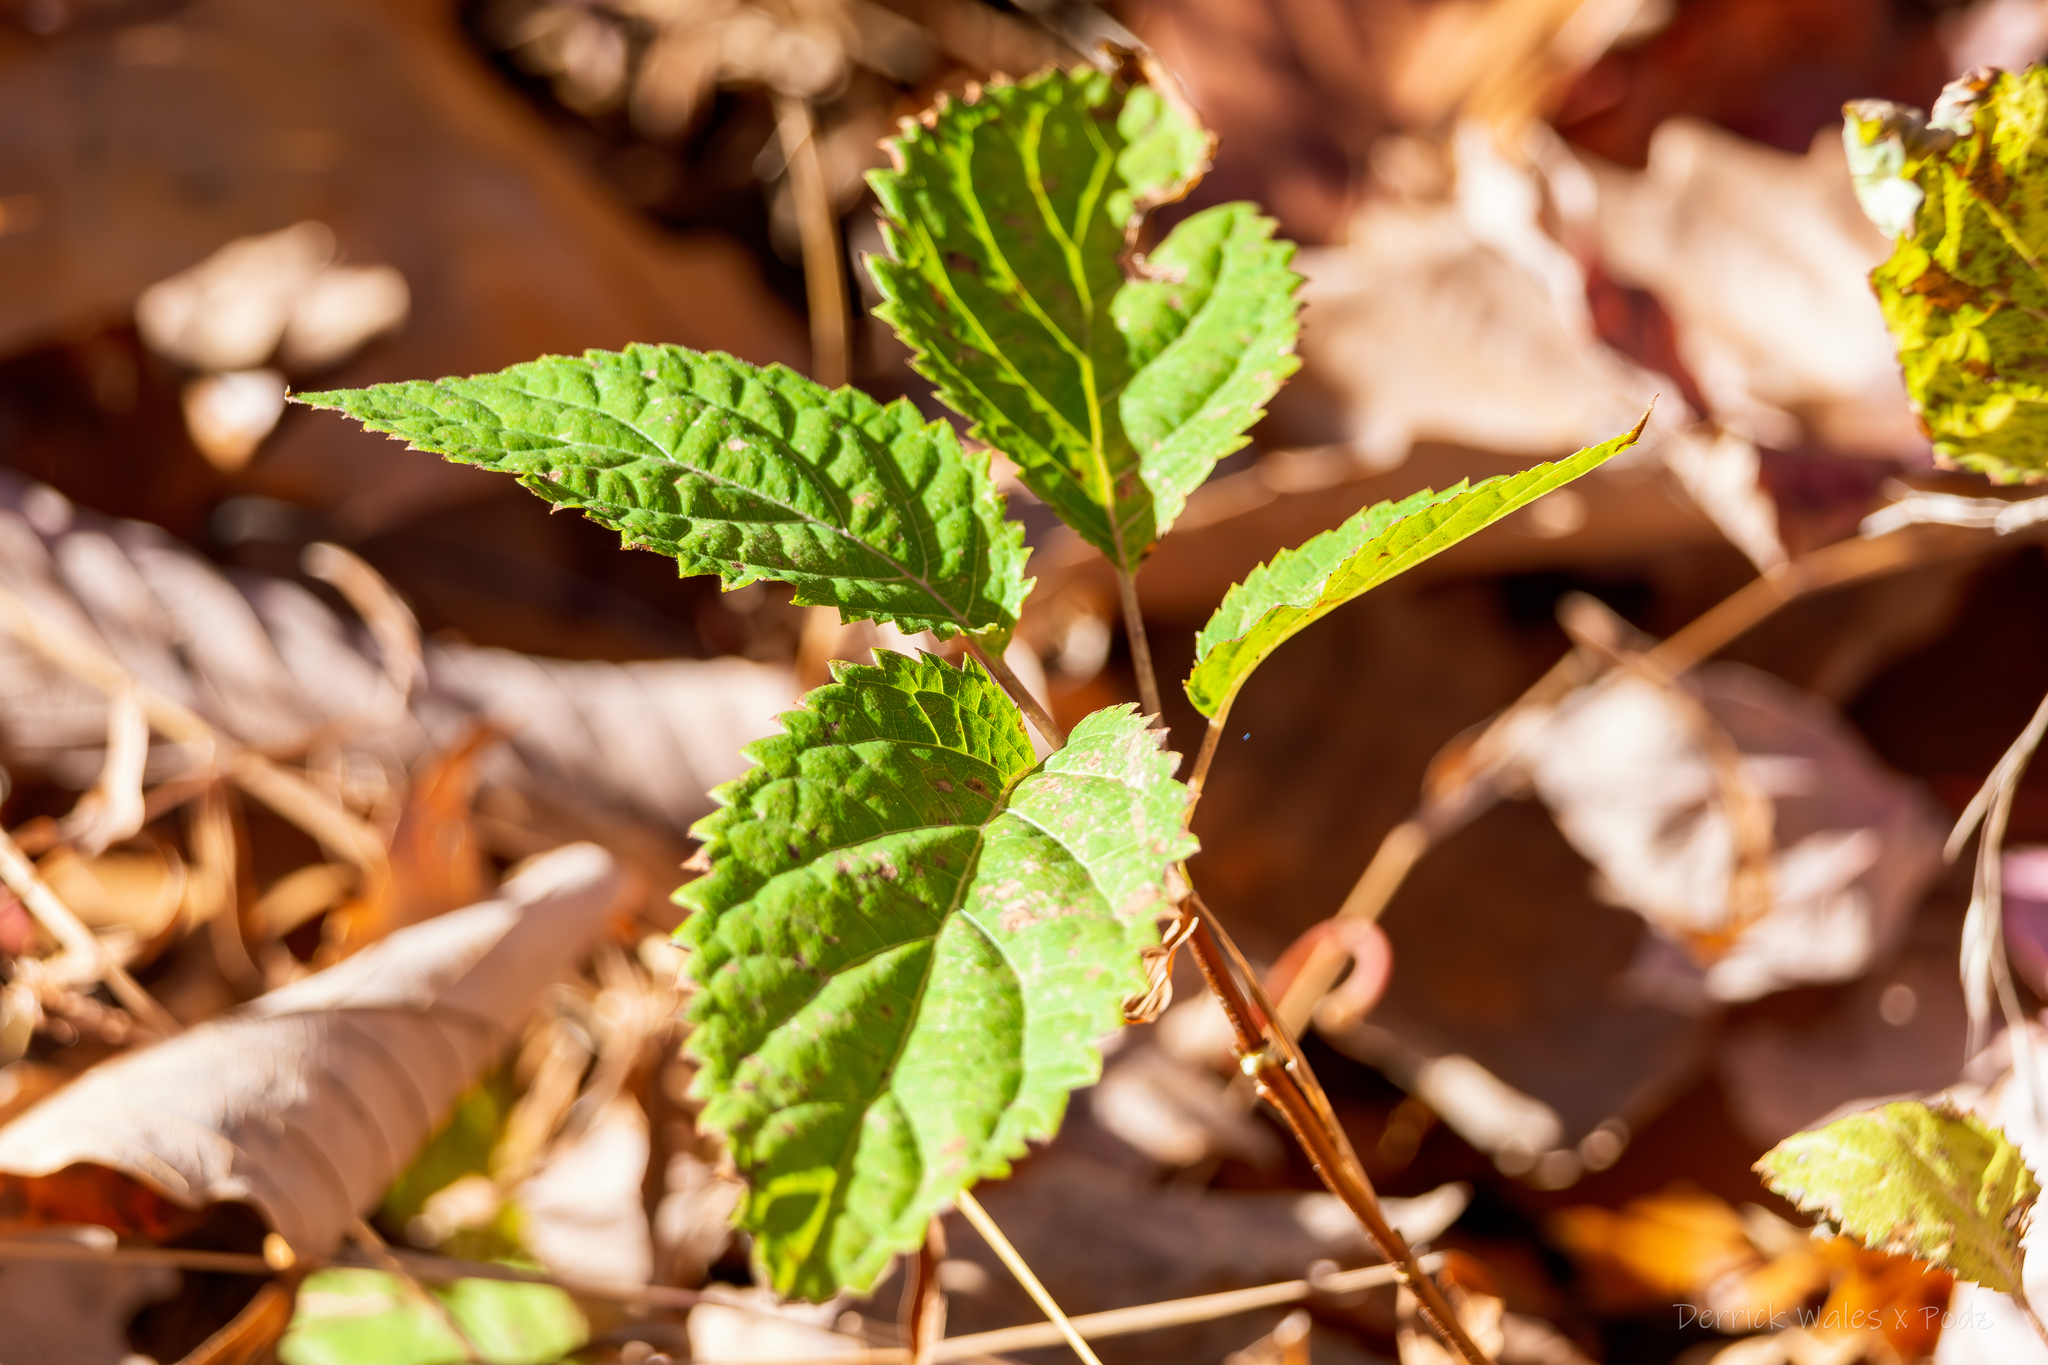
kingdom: Plantae
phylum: Tracheophyta
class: Magnoliopsida
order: Cornales
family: Hydrangeaceae
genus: Hydrangea
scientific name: Hydrangea arborescens
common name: Sevenbark
